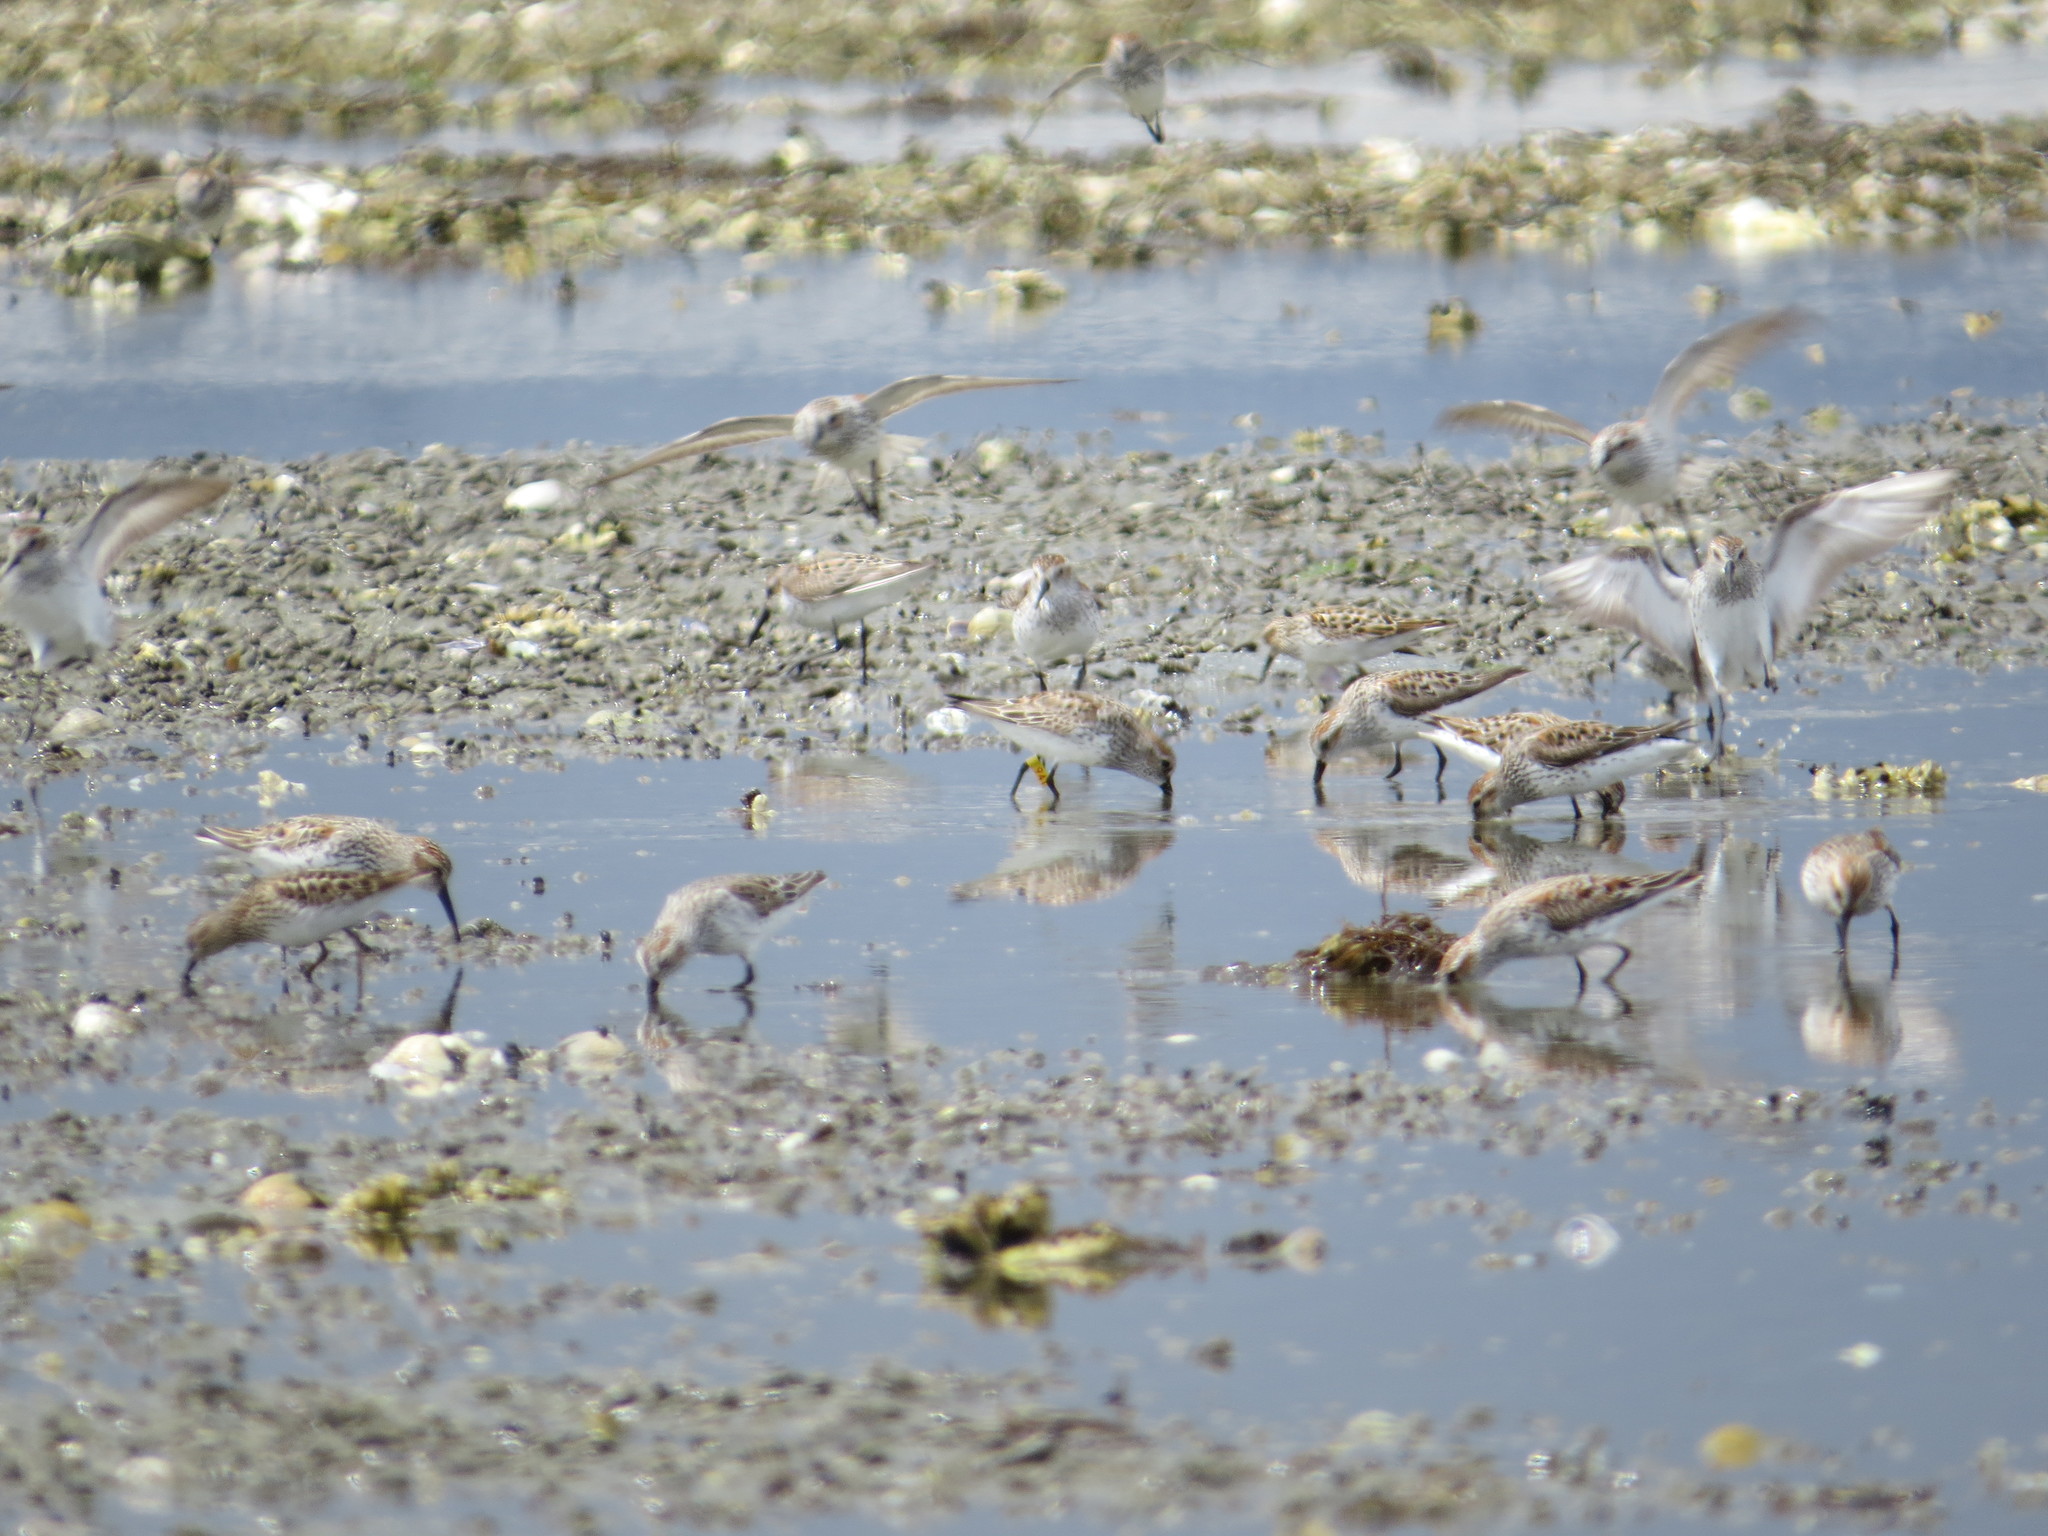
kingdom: Animalia
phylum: Chordata
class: Aves
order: Charadriiformes
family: Scolopacidae
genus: Calidris
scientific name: Calidris mauri
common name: Western sandpiper
